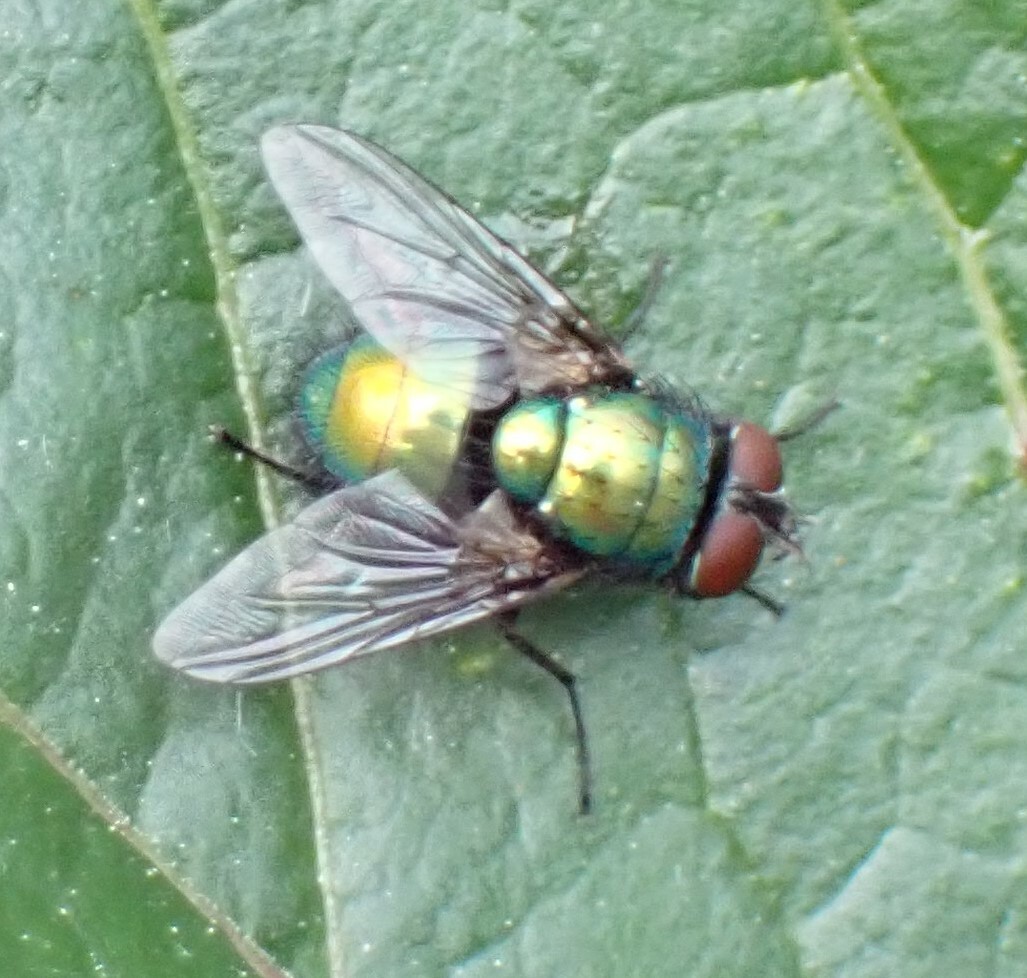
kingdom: Animalia
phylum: Arthropoda
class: Insecta
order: Diptera
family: Calliphoridae
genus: Lucilia
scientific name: Lucilia
